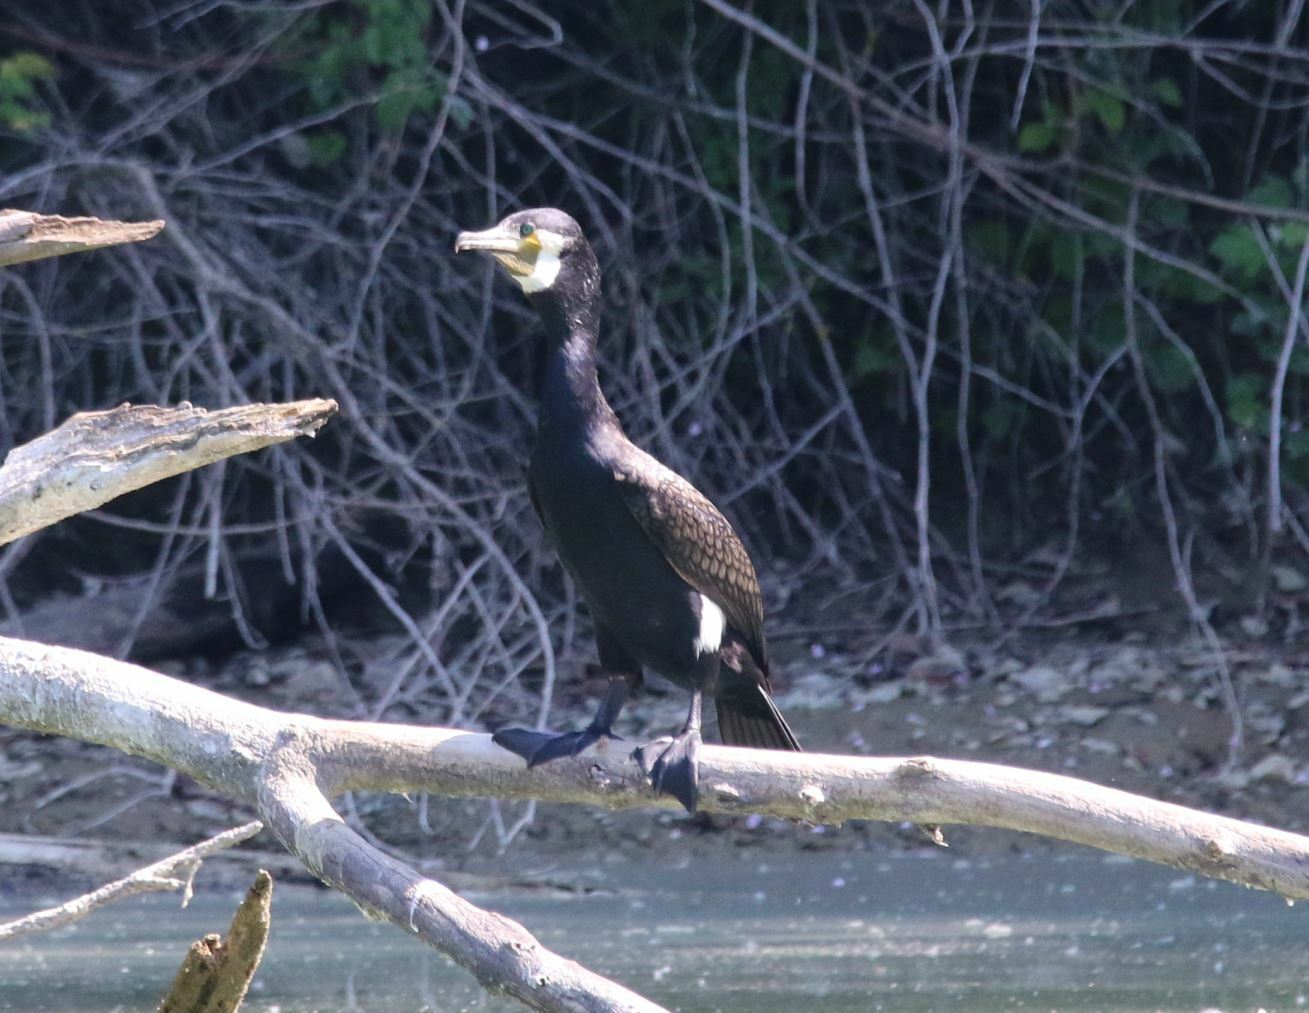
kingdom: Animalia
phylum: Chordata
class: Aves
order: Suliformes
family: Phalacrocoracidae
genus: Phalacrocorax
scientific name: Phalacrocorax carbo
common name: Great cormorant
